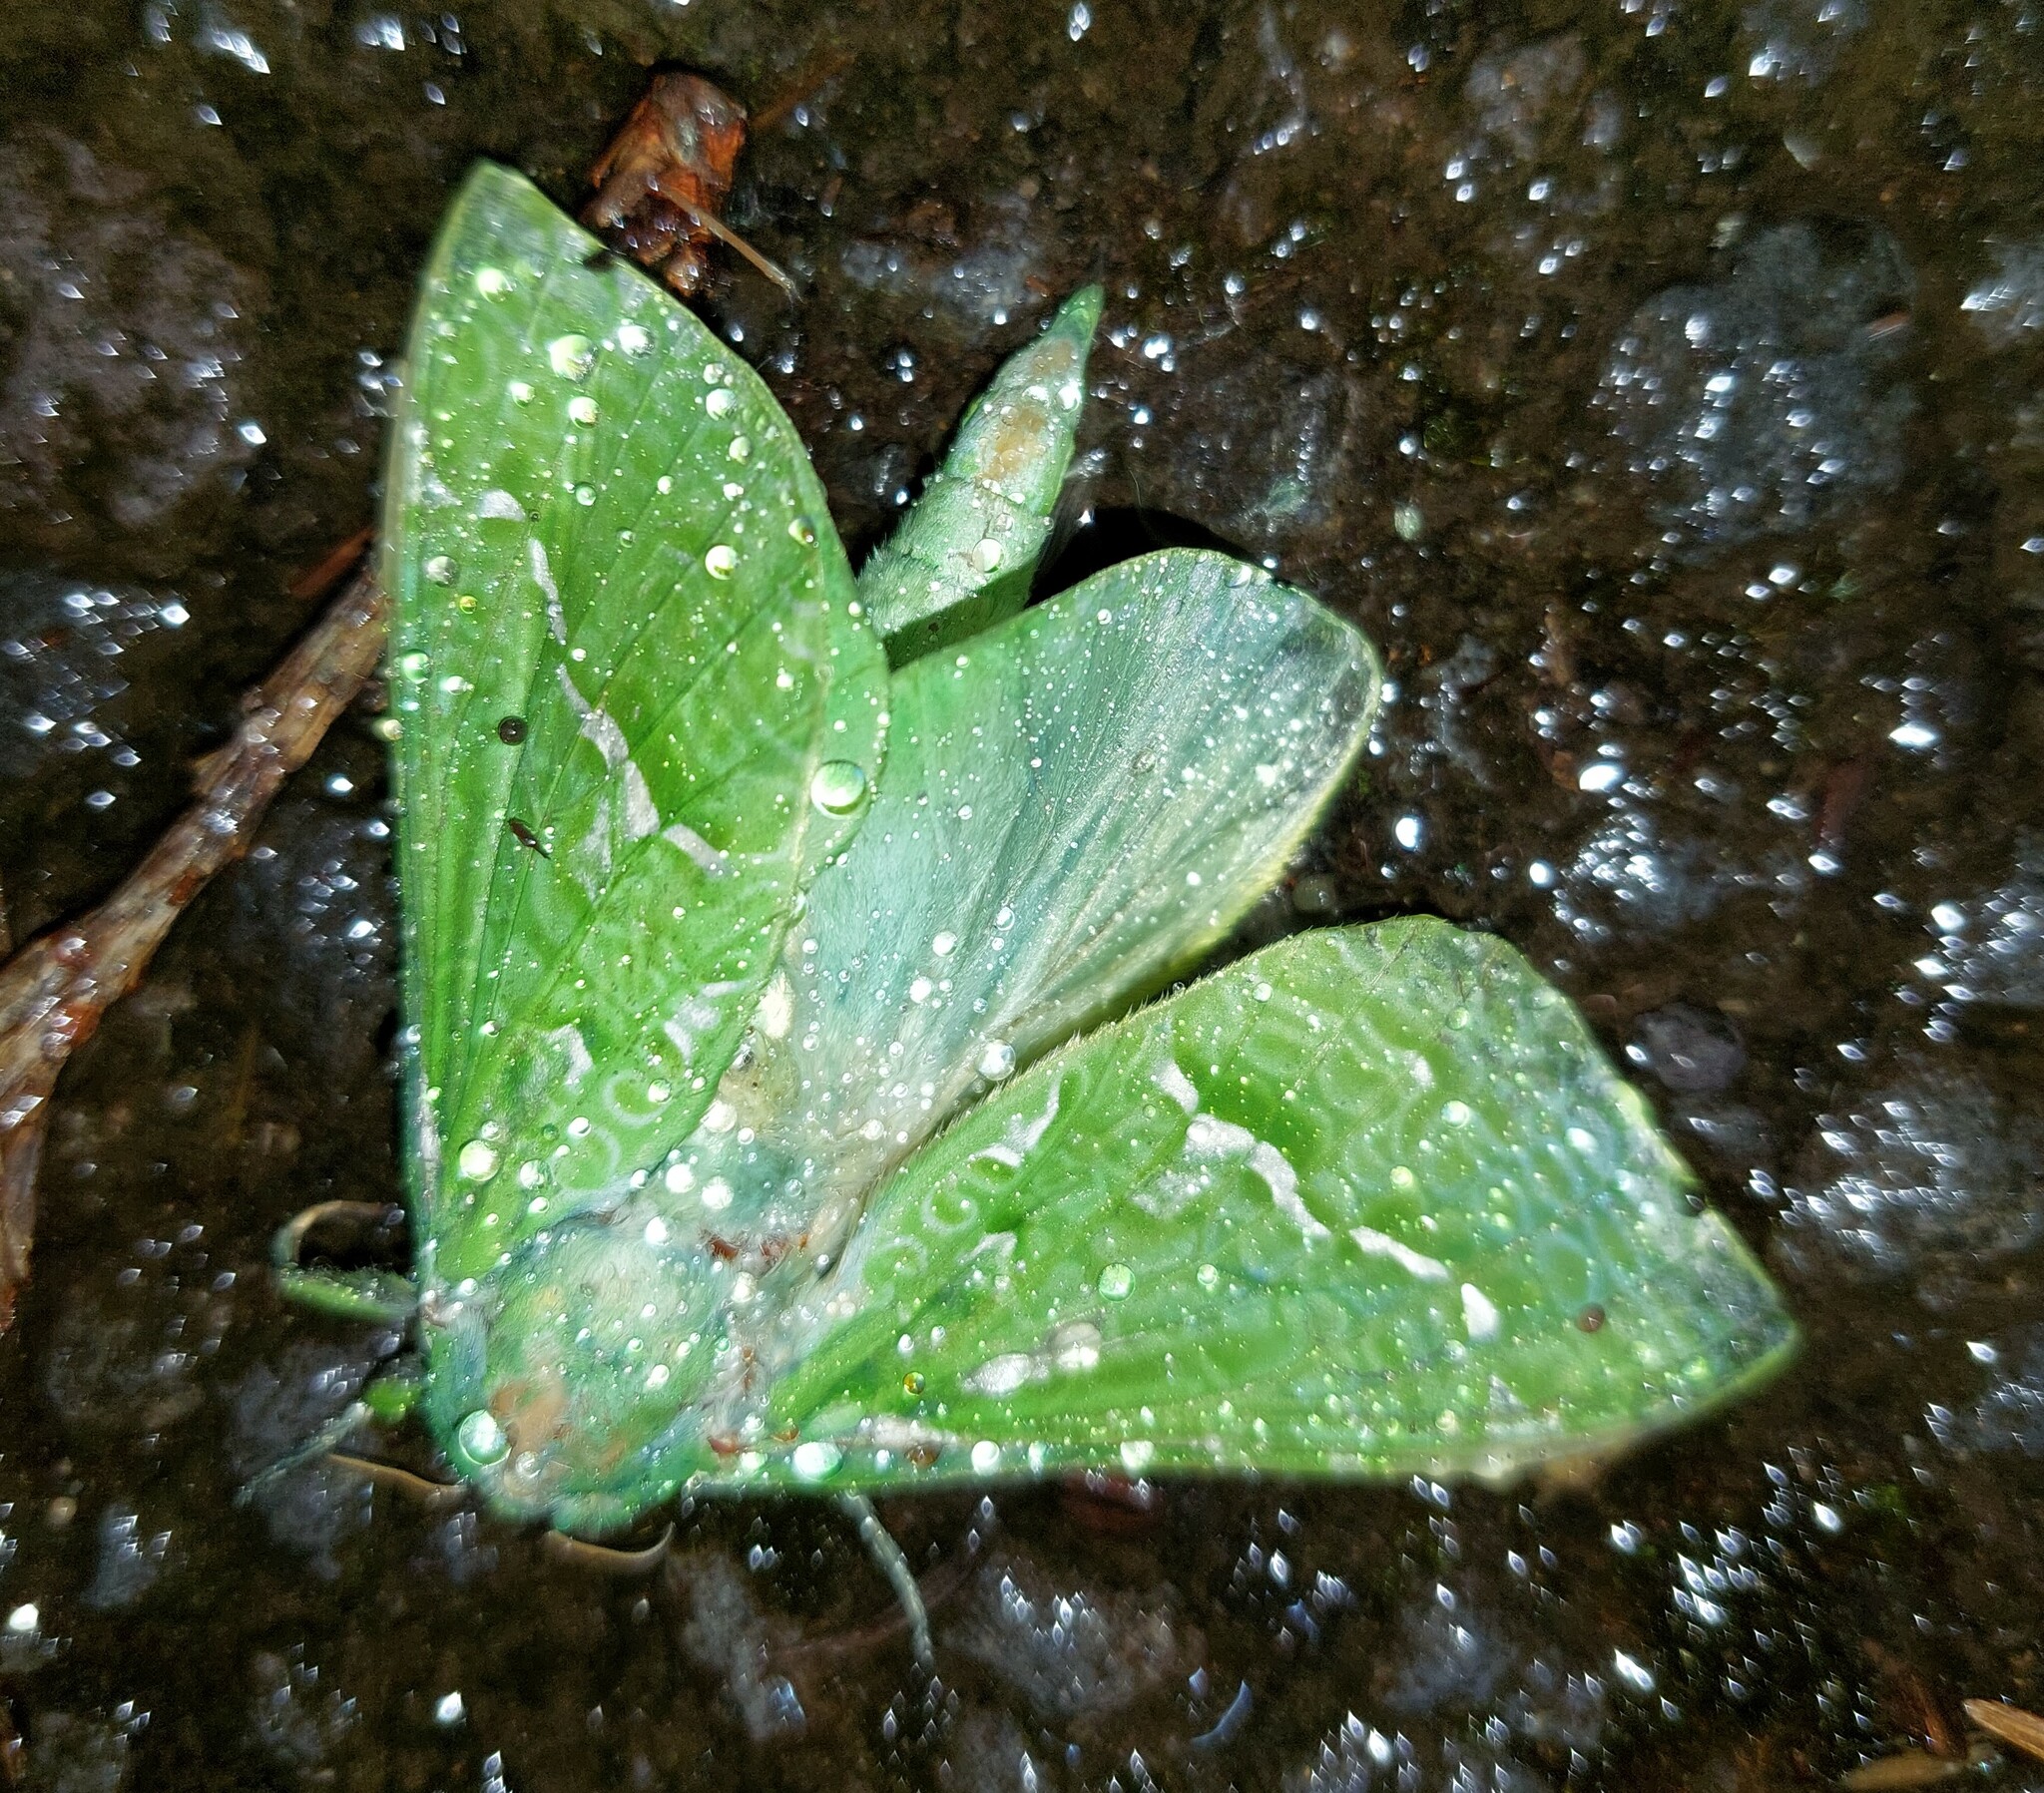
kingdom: Animalia
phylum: Arthropoda
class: Insecta
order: Lepidoptera
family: Hepialidae
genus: Aenetus
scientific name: Aenetus virescens
